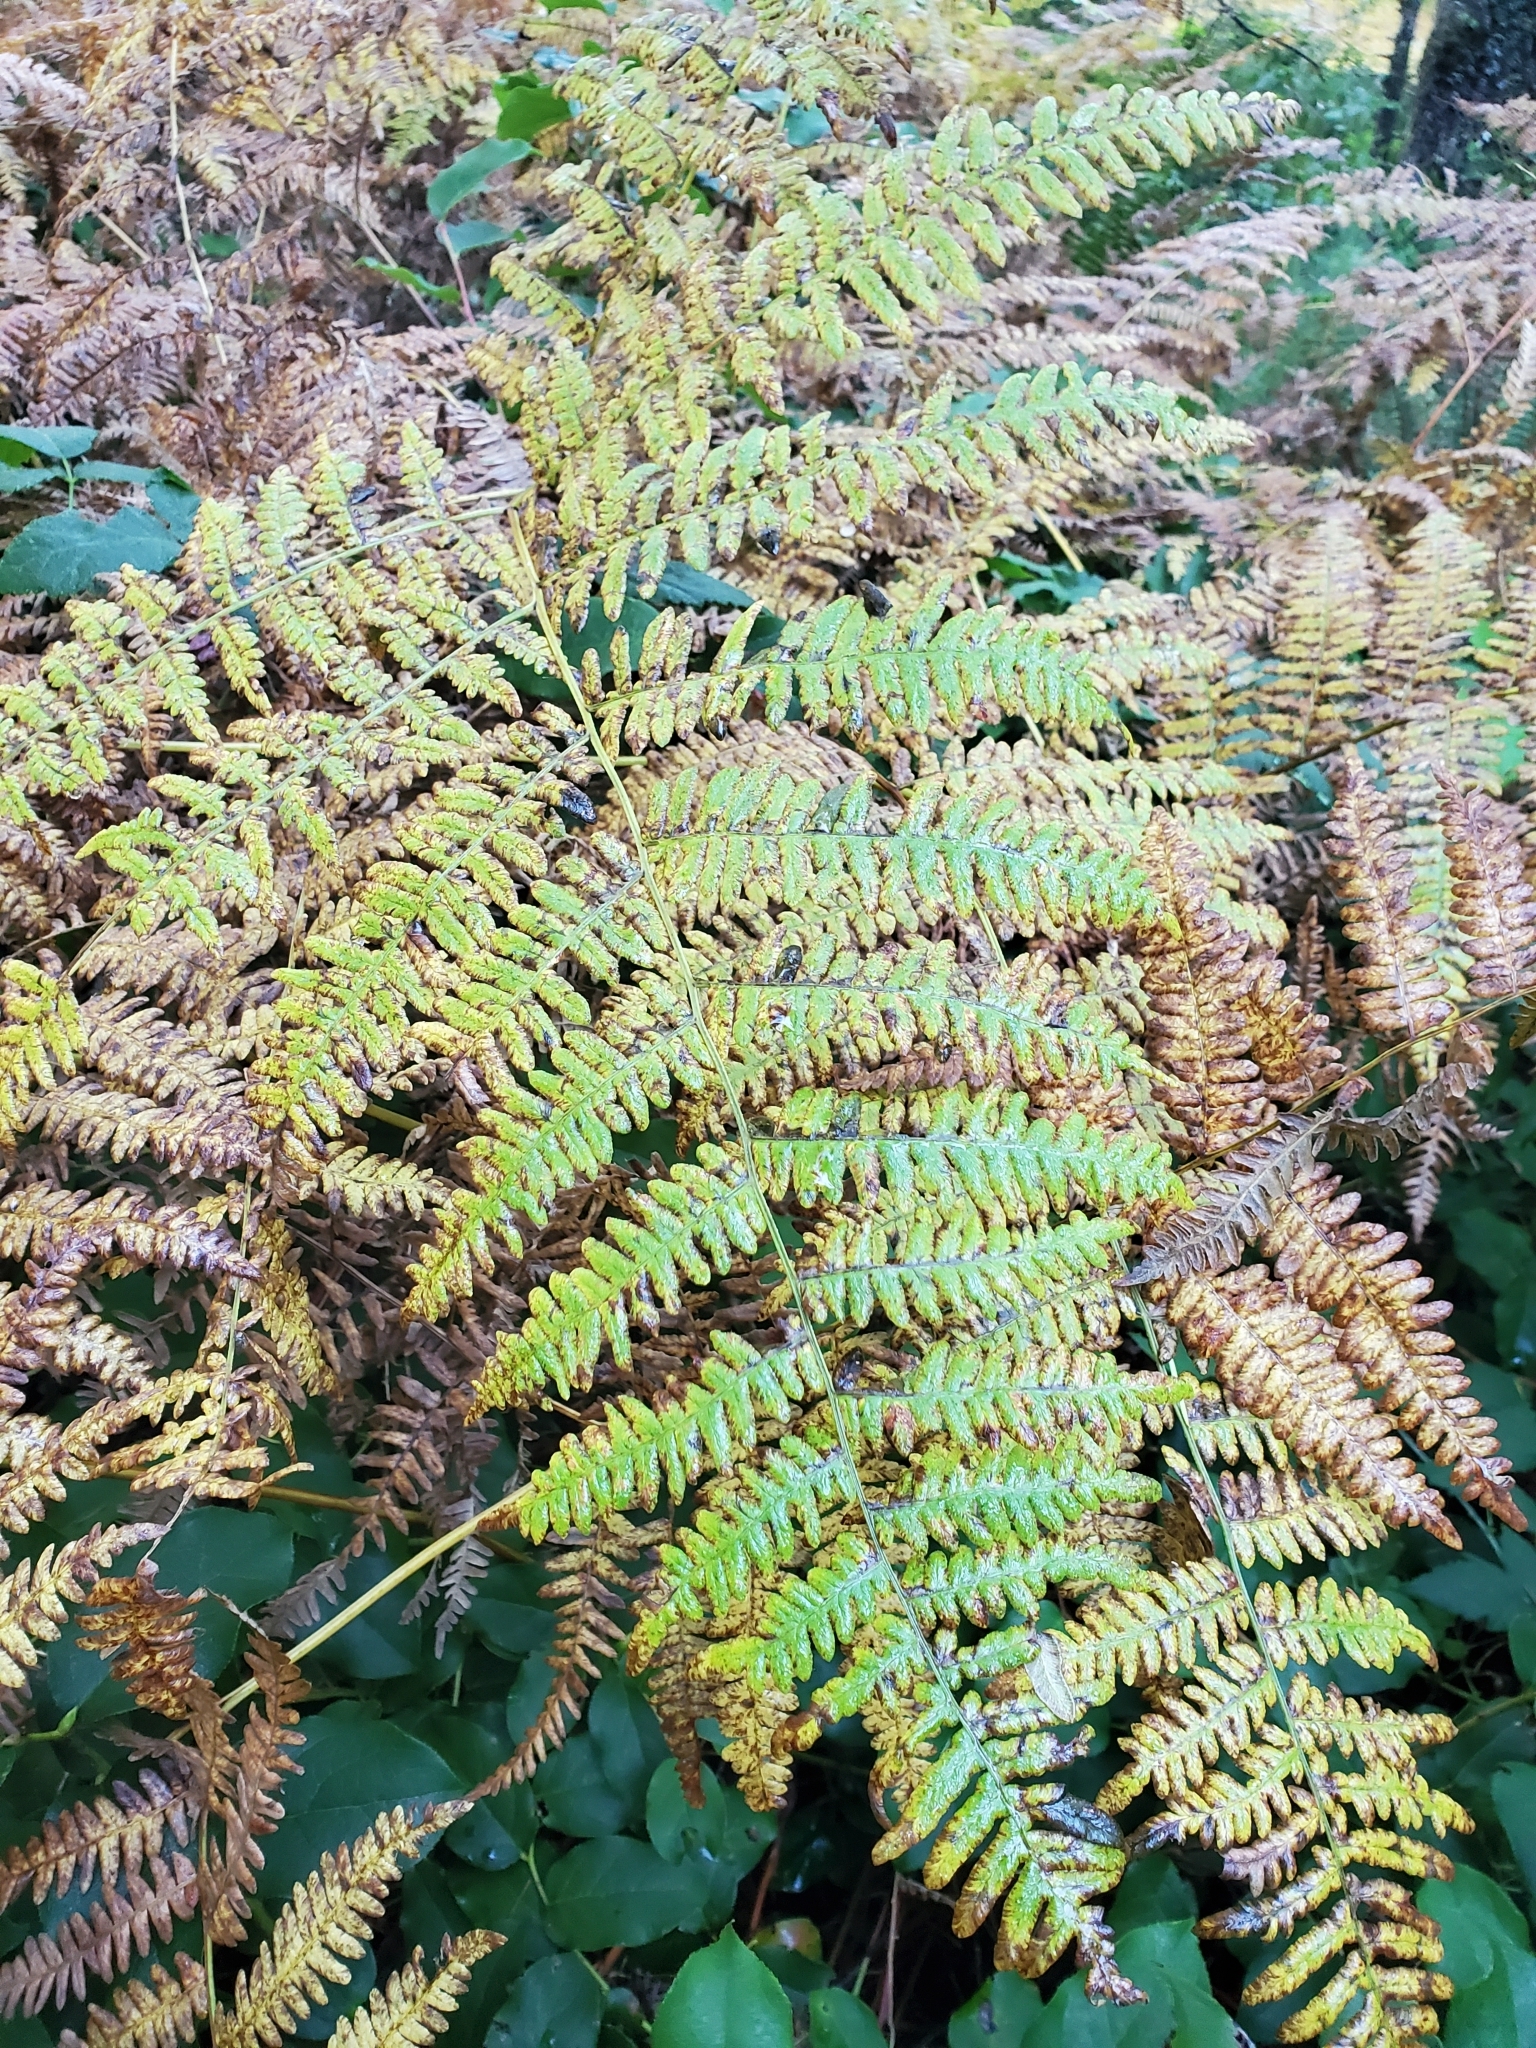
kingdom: Plantae
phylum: Tracheophyta
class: Polypodiopsida
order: Polypodiales
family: Dennstaedtiaceae
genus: Pteridium
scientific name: Pteridium aquilinum
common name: Bracken
